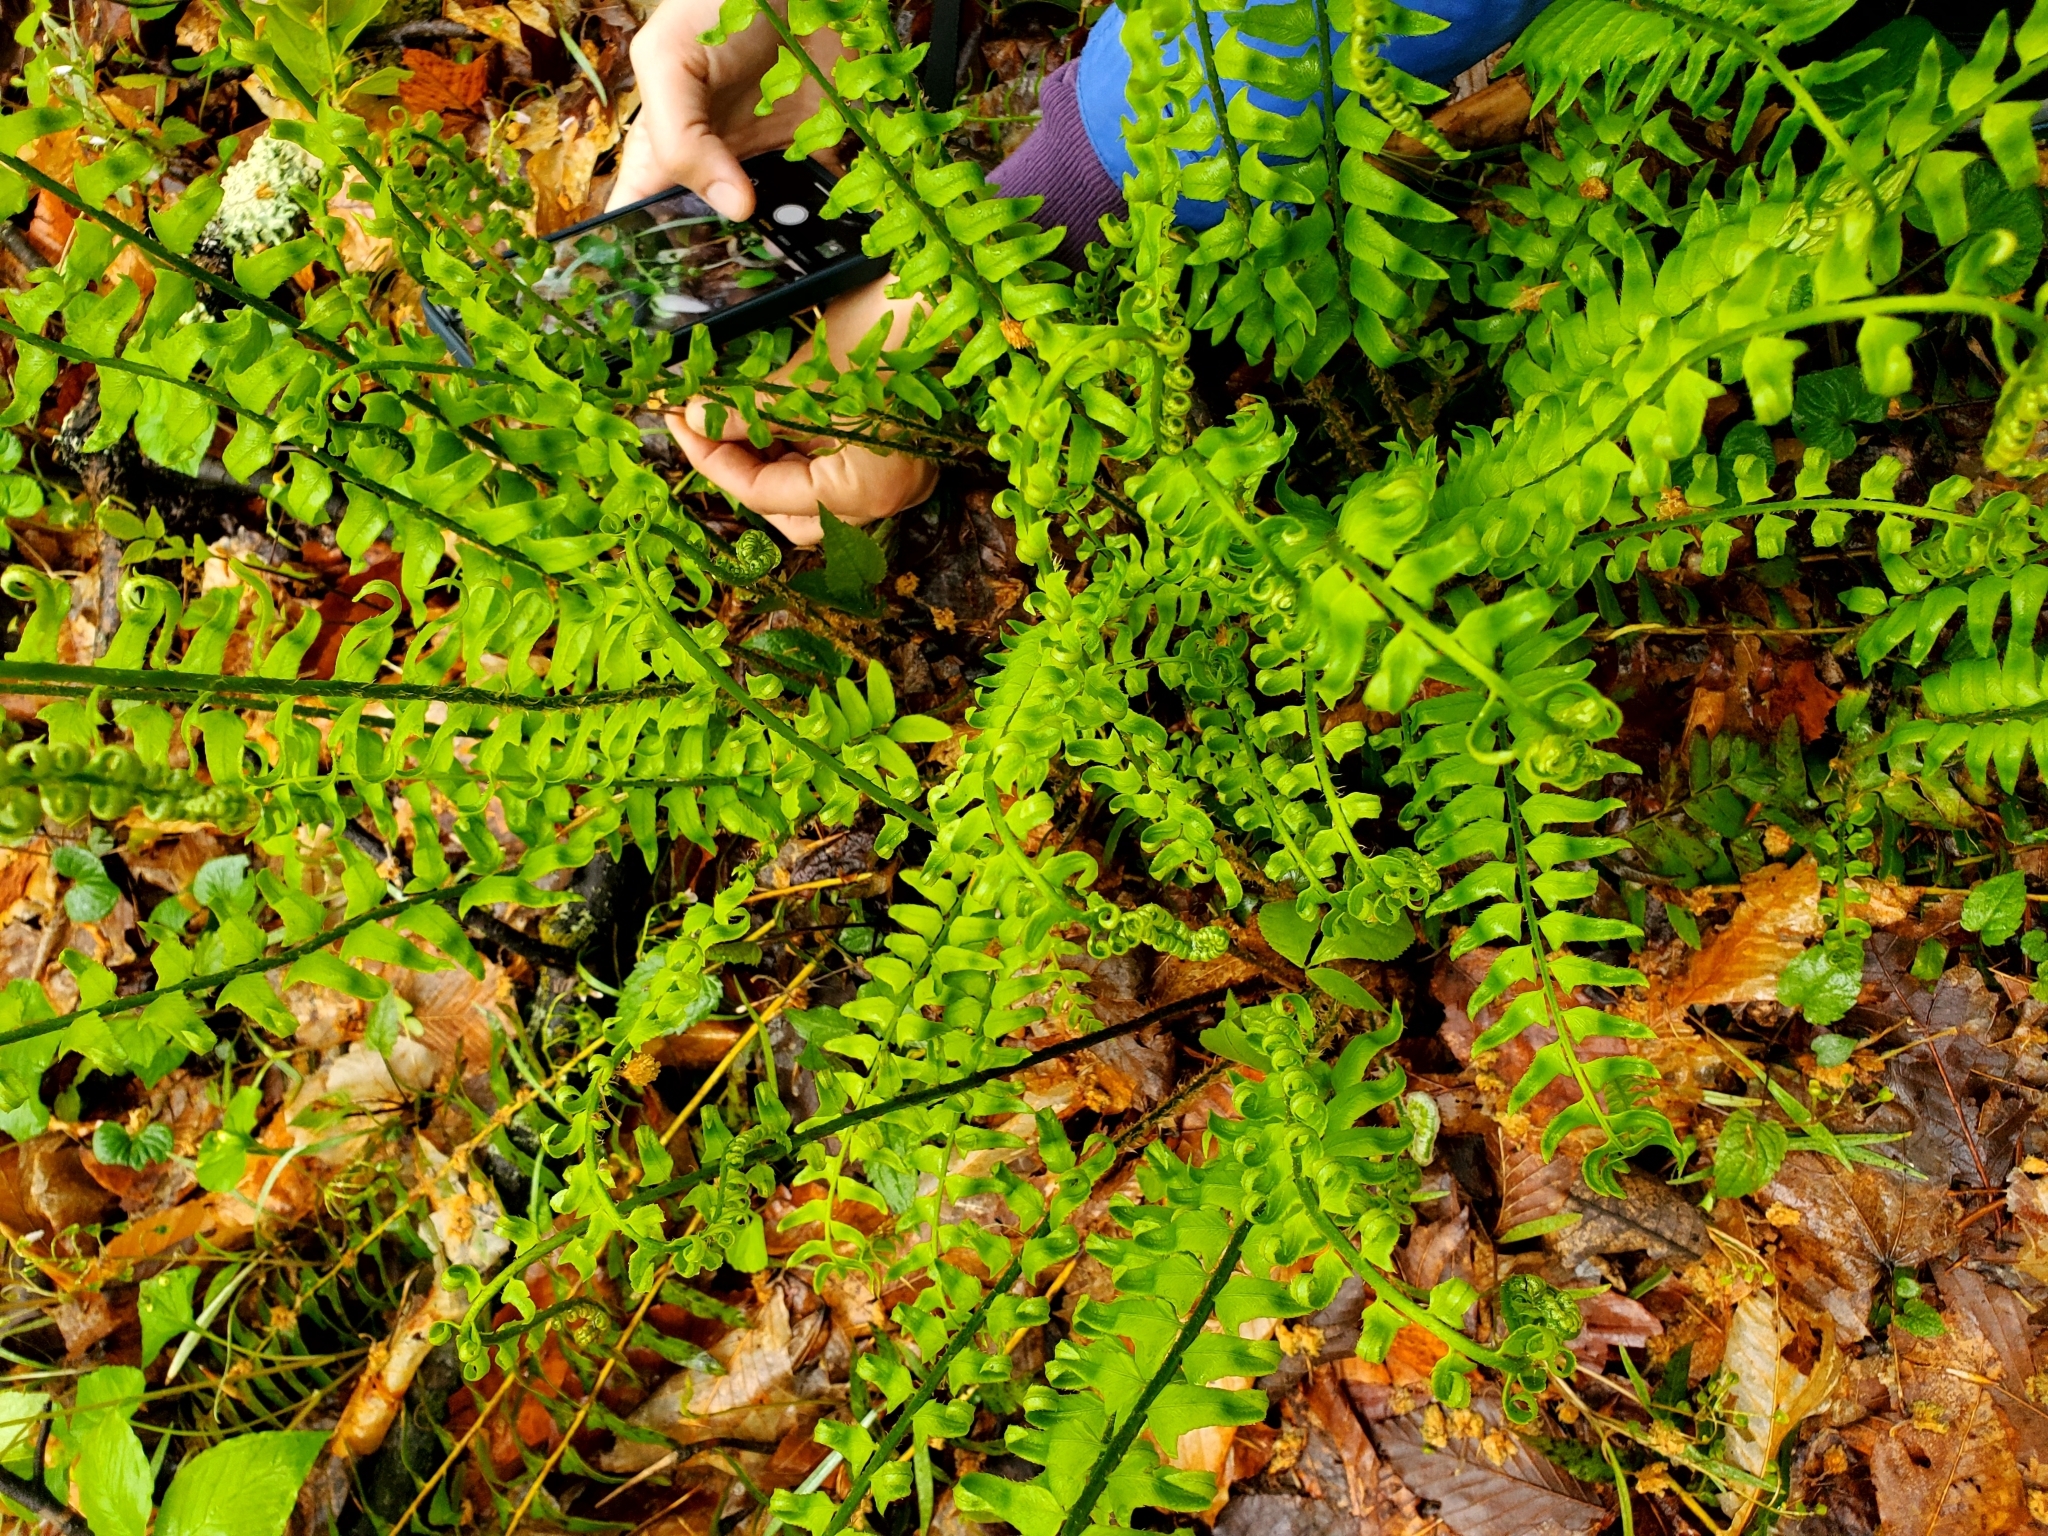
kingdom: Plantae
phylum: Tracheophyta
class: Polypodiopsida
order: Polypodiales
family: Dryopteridaceae
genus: Polystichum
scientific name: Polystichum acrostichoides
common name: Christmas fern
